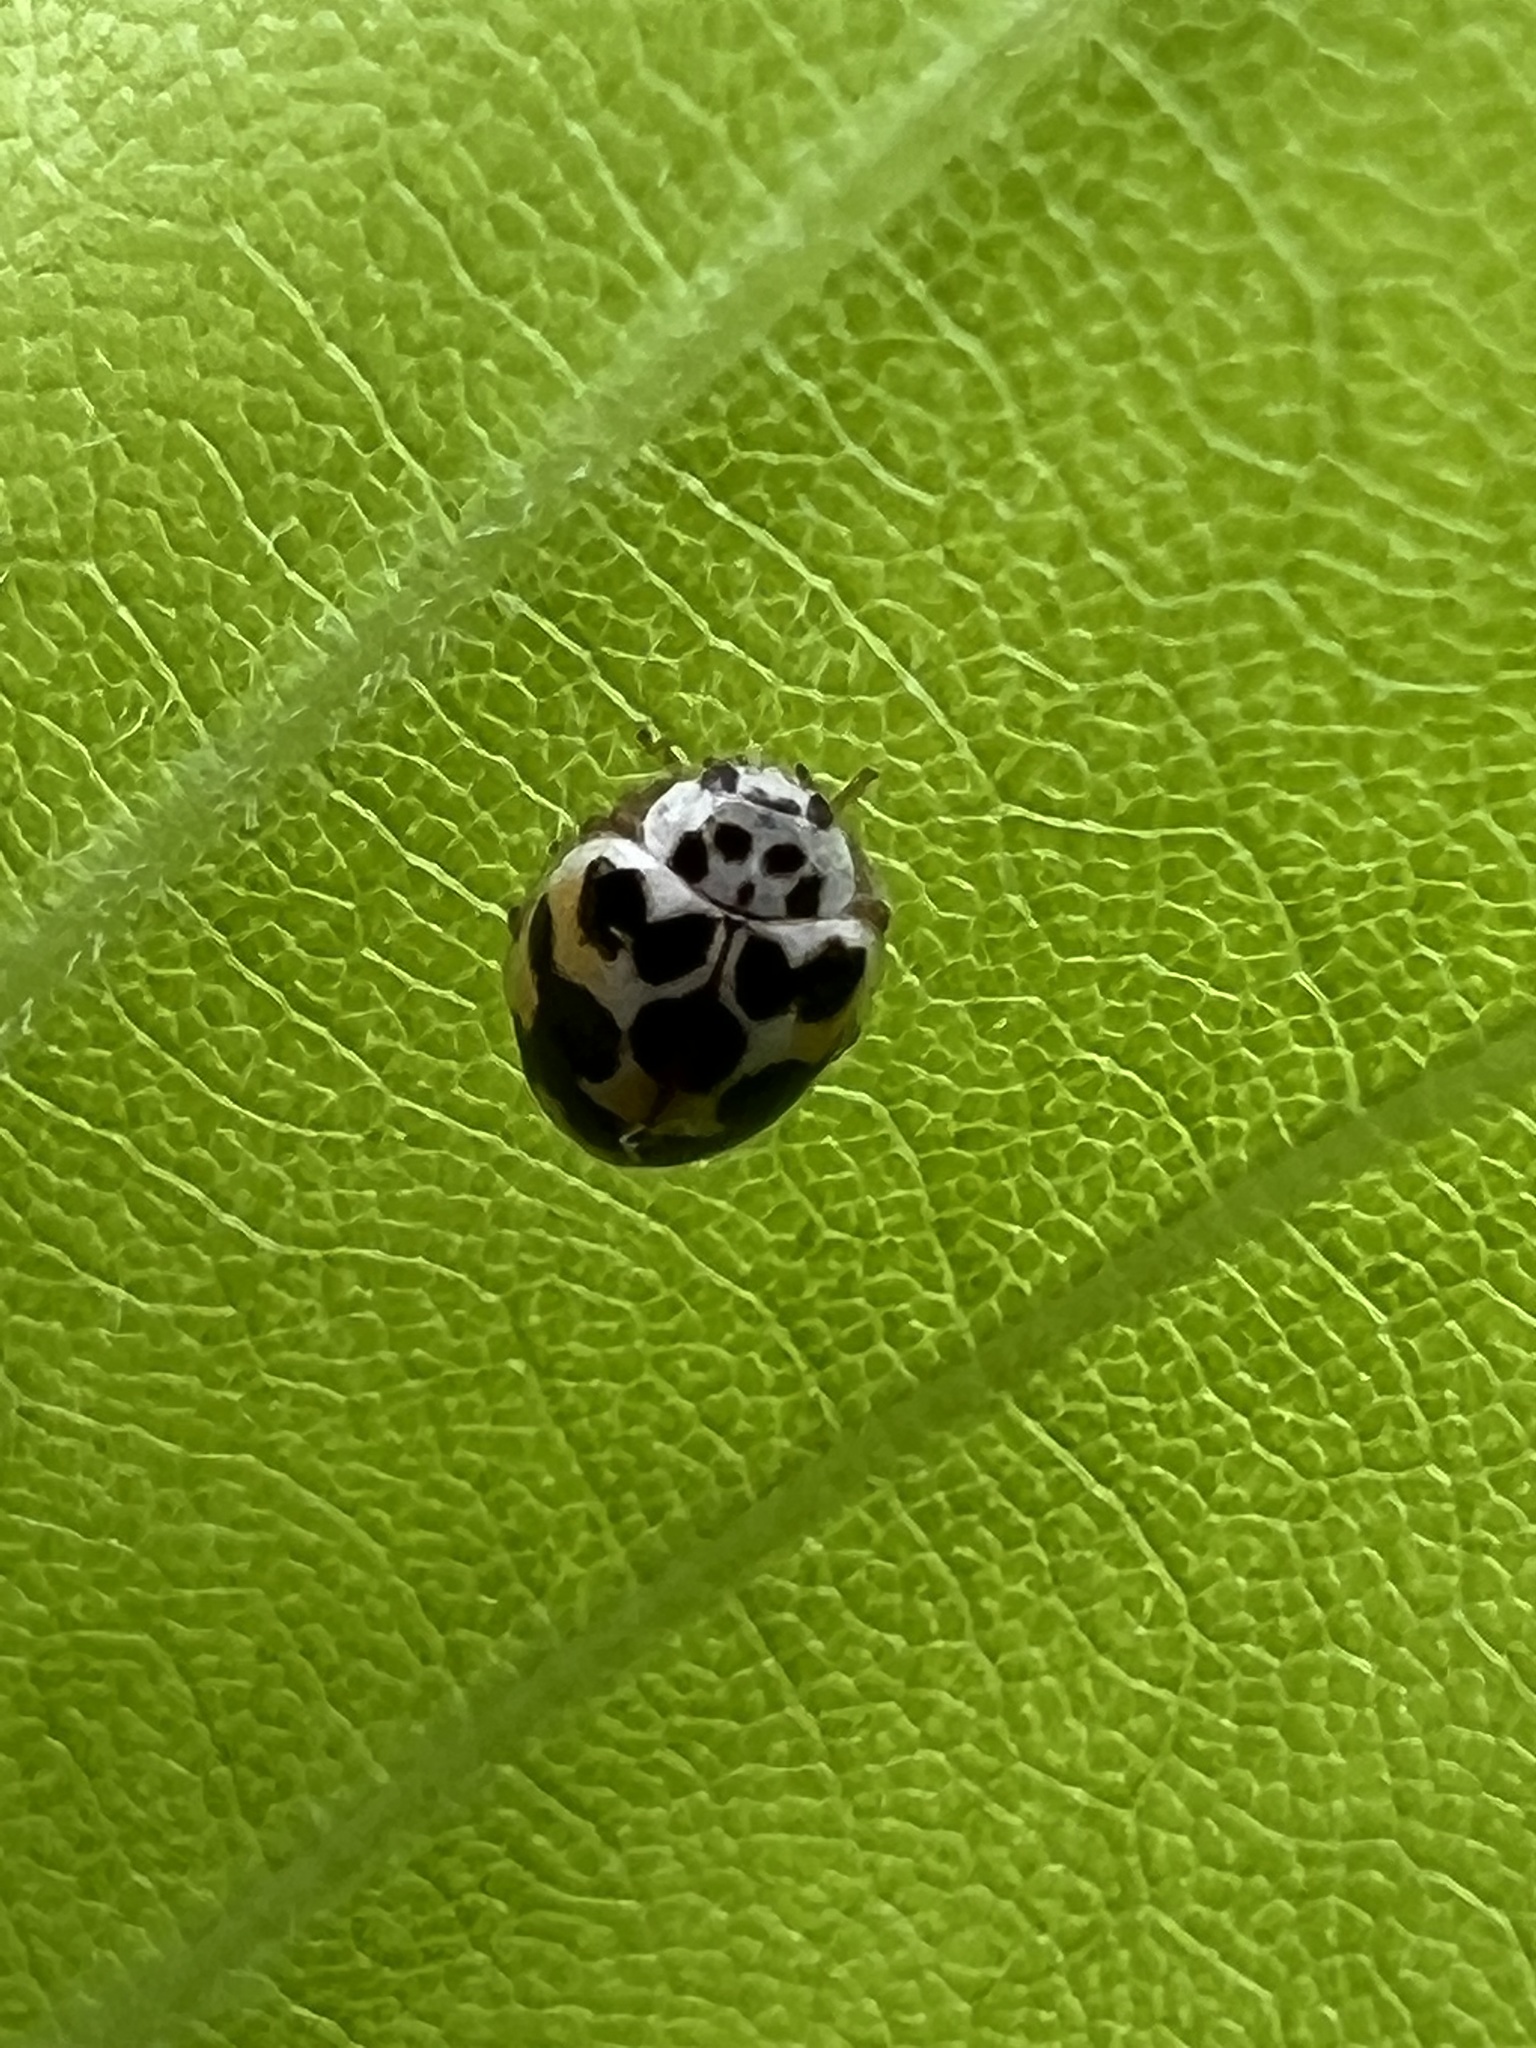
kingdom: Animalia
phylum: Arthropoda
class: Insecta
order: Coleoptera
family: Coccinellidae
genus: Psyllobora
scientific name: Psyllobora vigintimaculata
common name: Ladybird beetle
